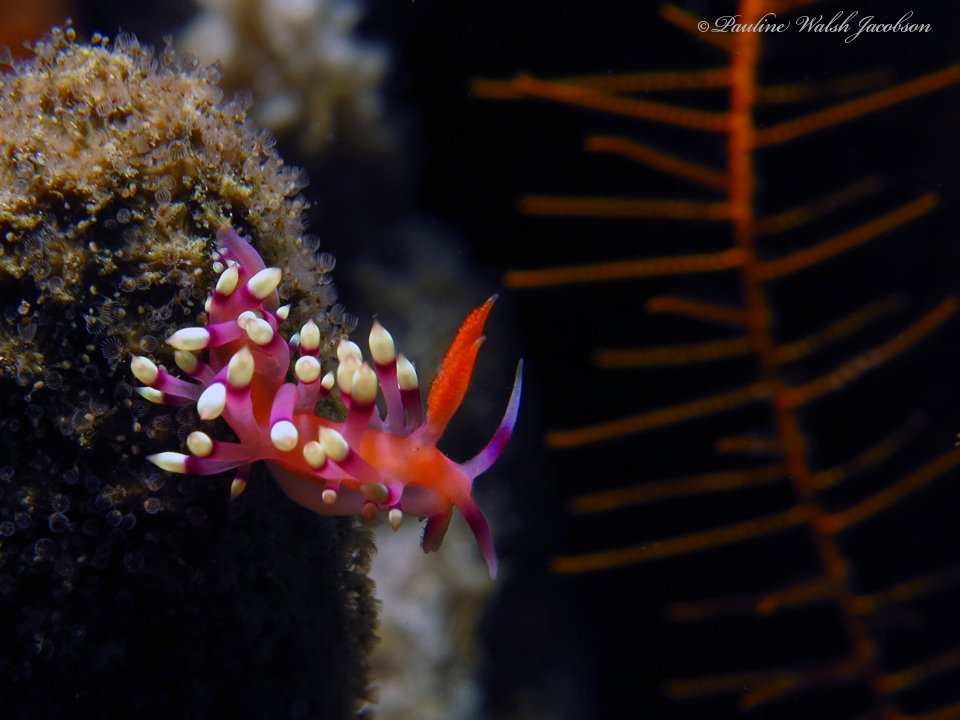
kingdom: Animalia
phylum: Mollusca
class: Gastropoda
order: Nudibranchia
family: Flabellinidae
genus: Coryphellina
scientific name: Coryphellina exoptata
